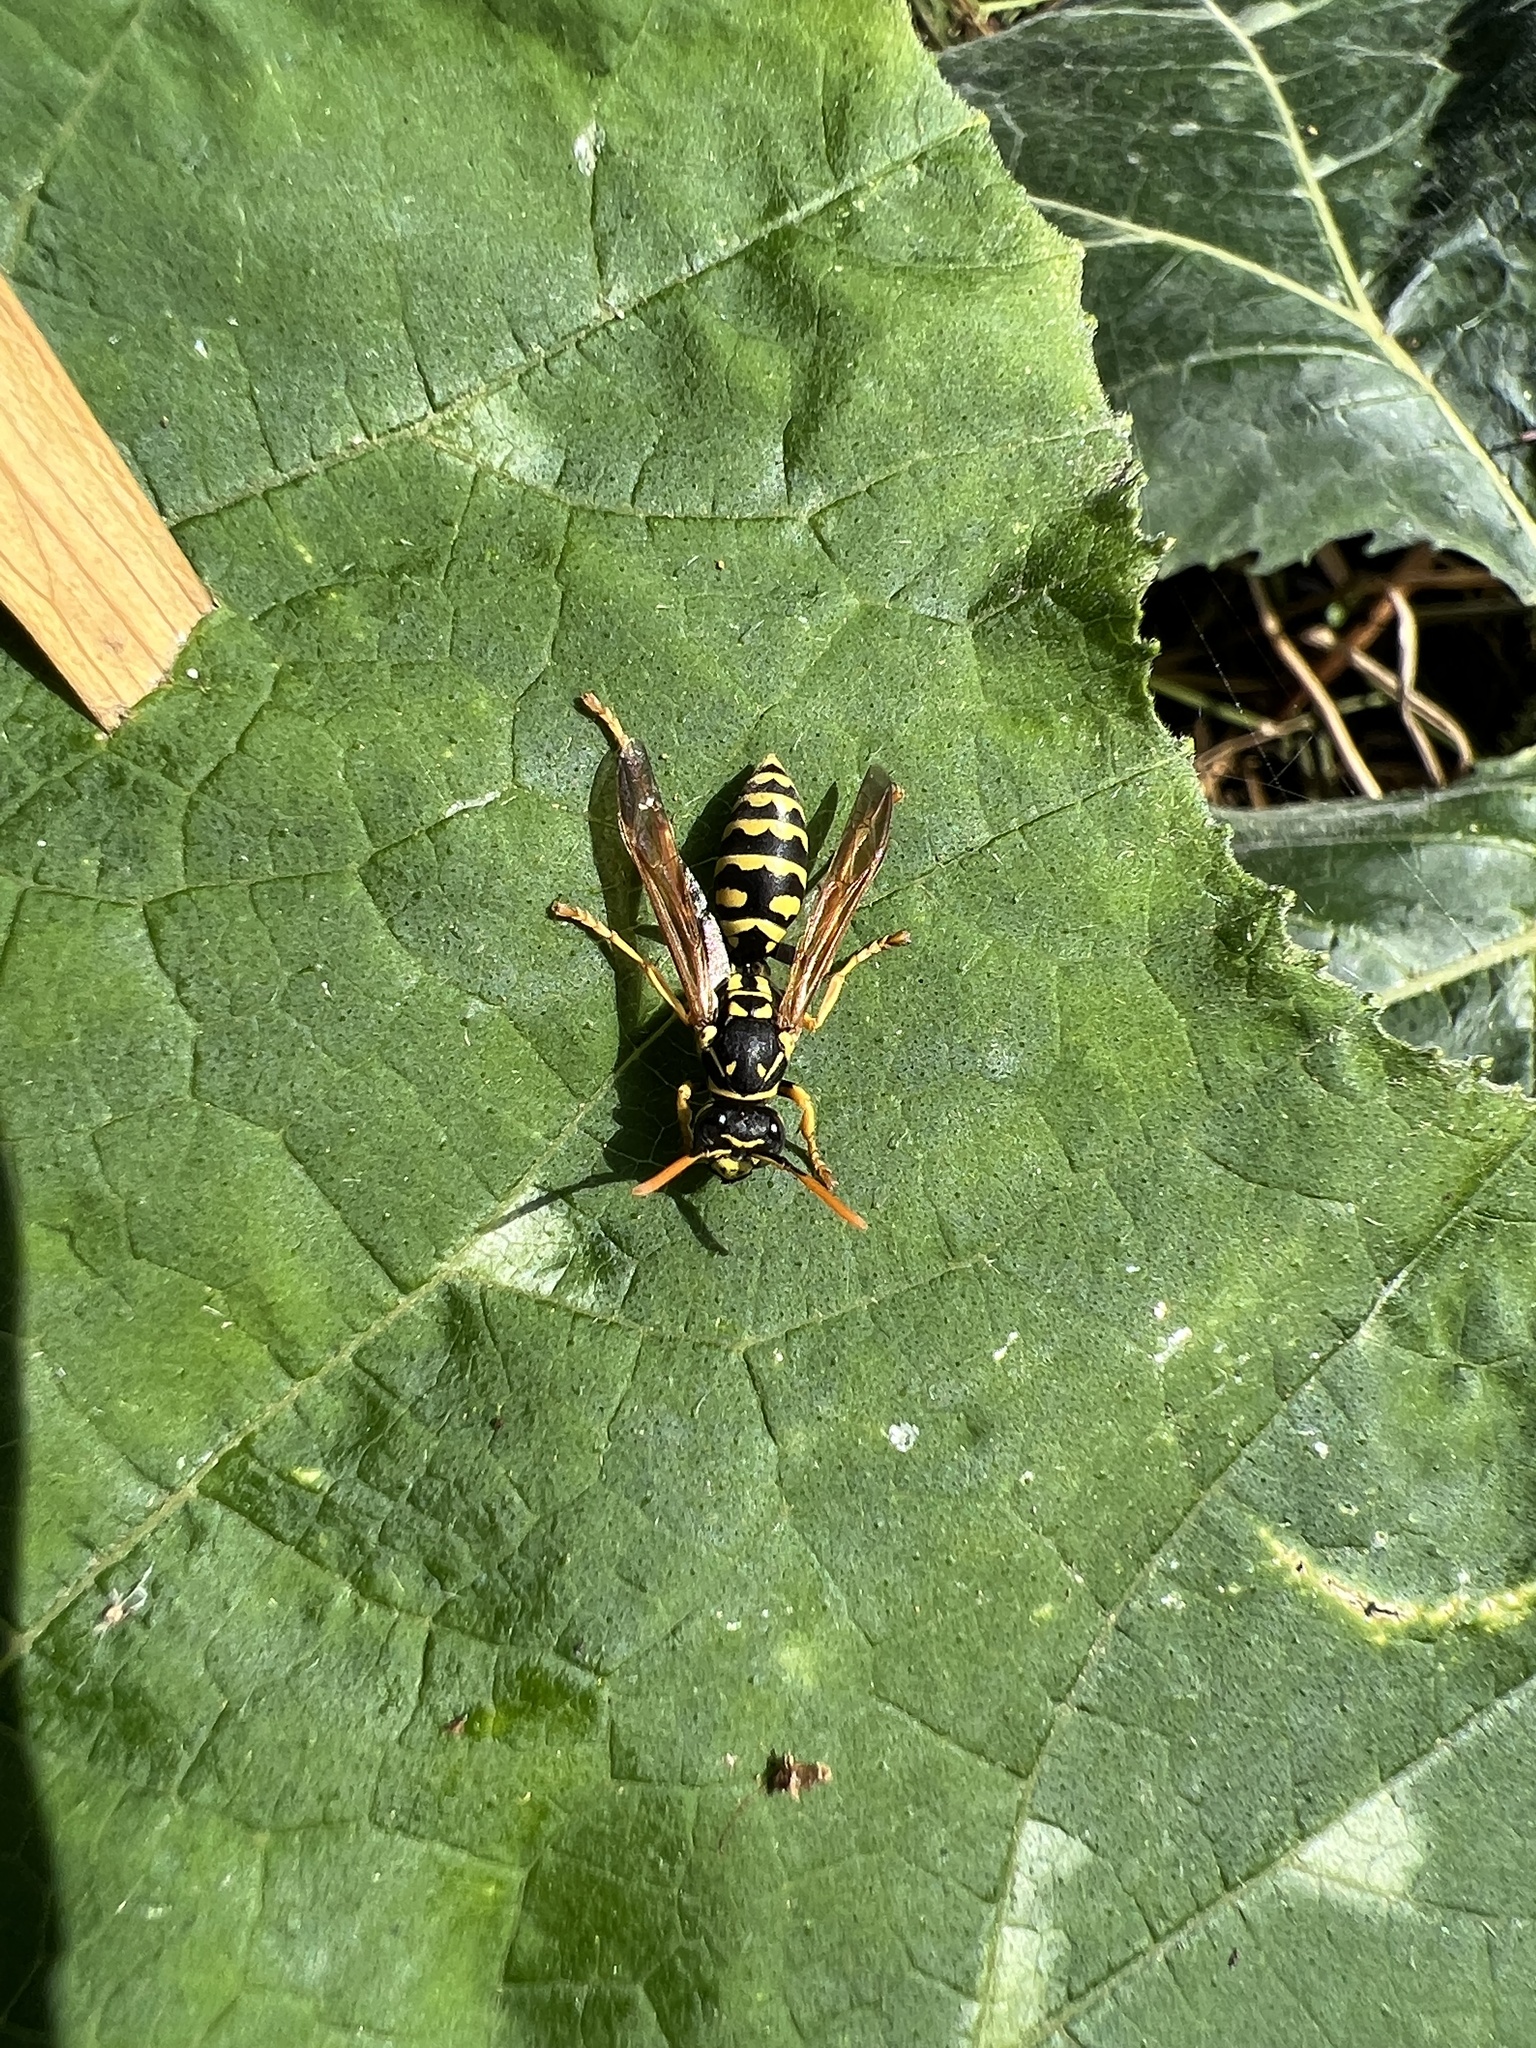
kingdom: Animalia
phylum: Arthropoda
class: Insecta
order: Hymenoptera
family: Eumenidae
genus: Polistes
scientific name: Polistes dominula
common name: Paper wasp
